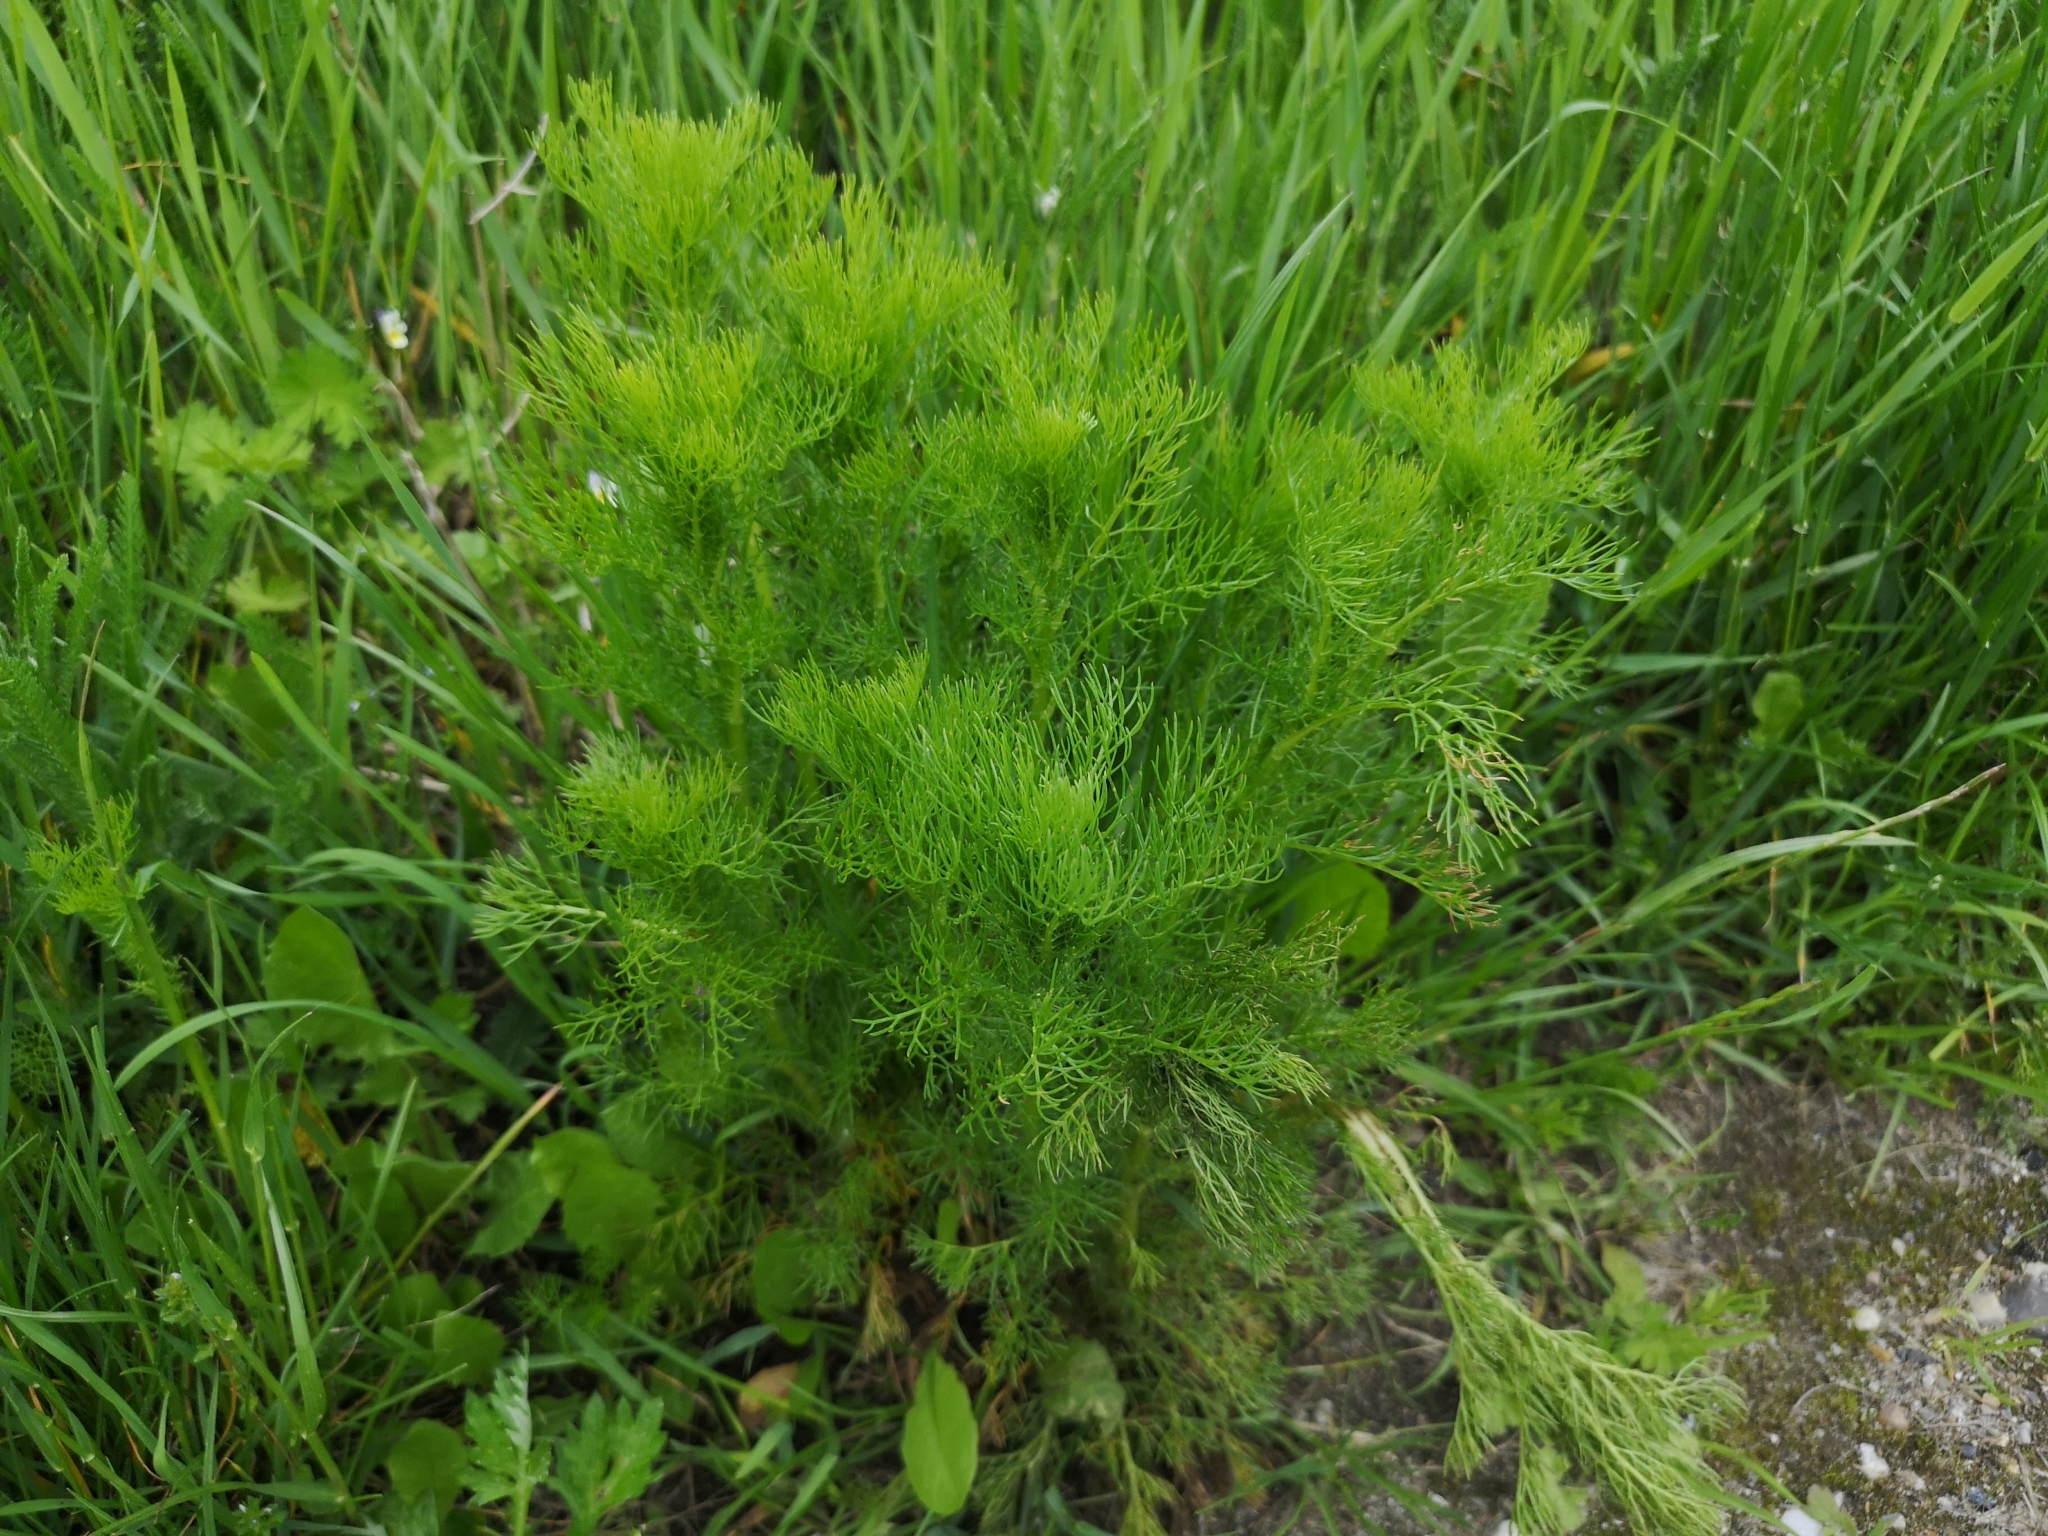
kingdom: Plantae
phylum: Tracheophyta
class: Magnoliopsida
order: Asterales
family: Asteraceae
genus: Tripleurospermum
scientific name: Tripleurospermum inodorum
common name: Scentless mayweed
